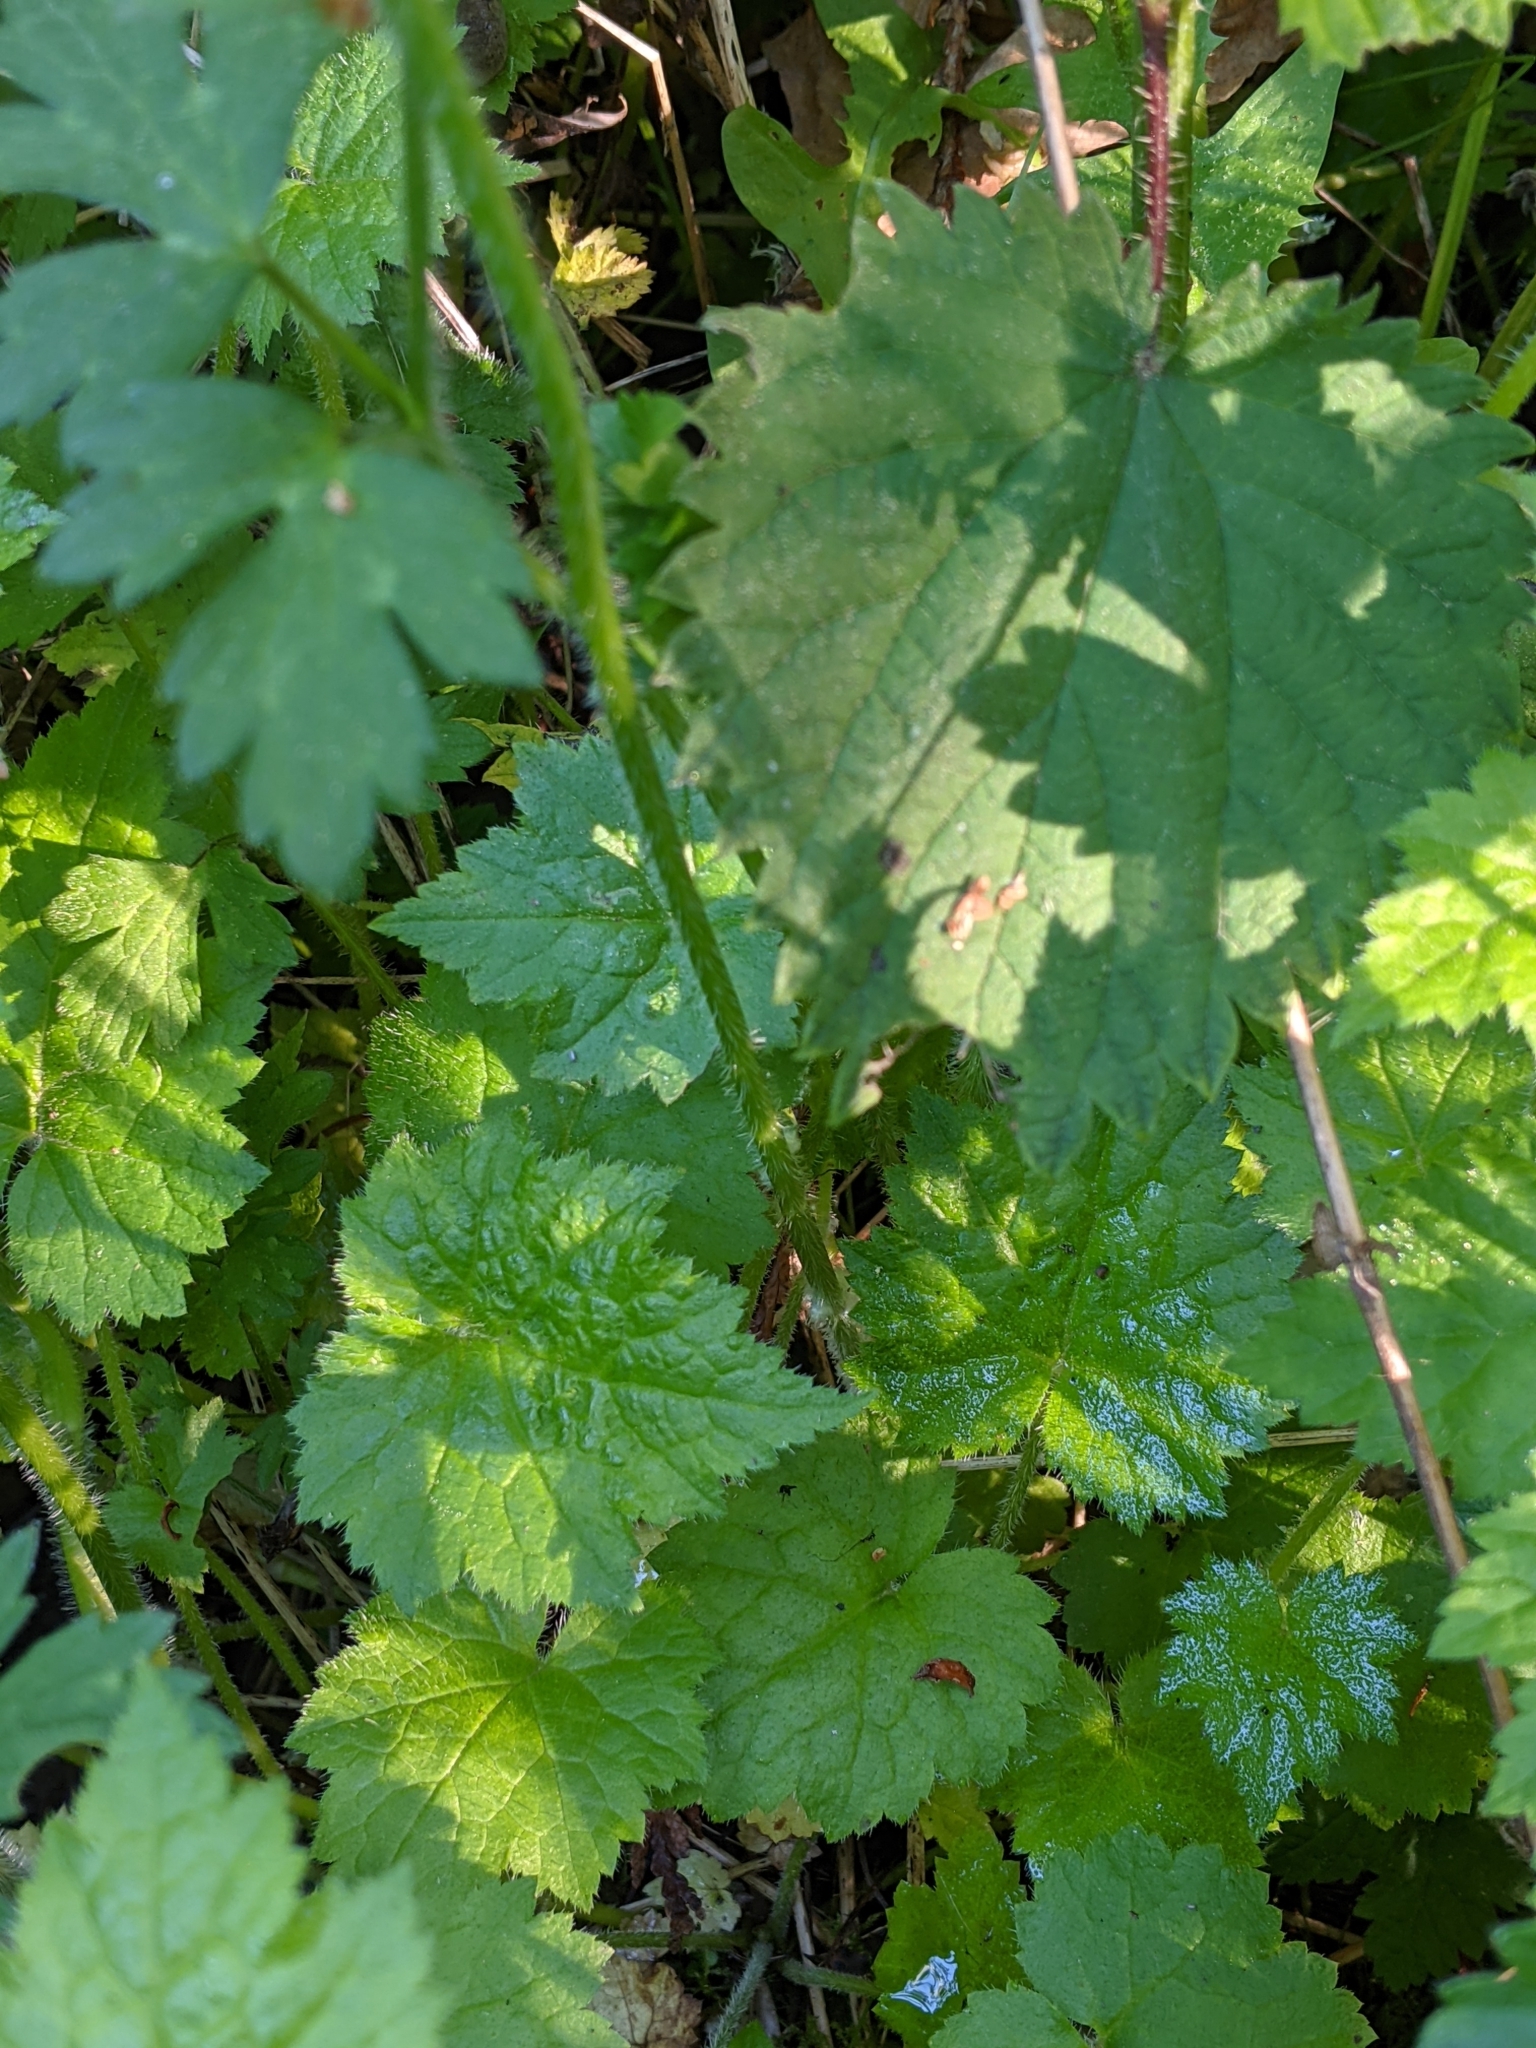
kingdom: Plantae
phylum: Tracheophyta
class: Magnoliopsida
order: Saxifragales
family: Saxifragaceae
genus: Tolmiea
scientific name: Tolmiea menziesii
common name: Pick-a-back-plant
